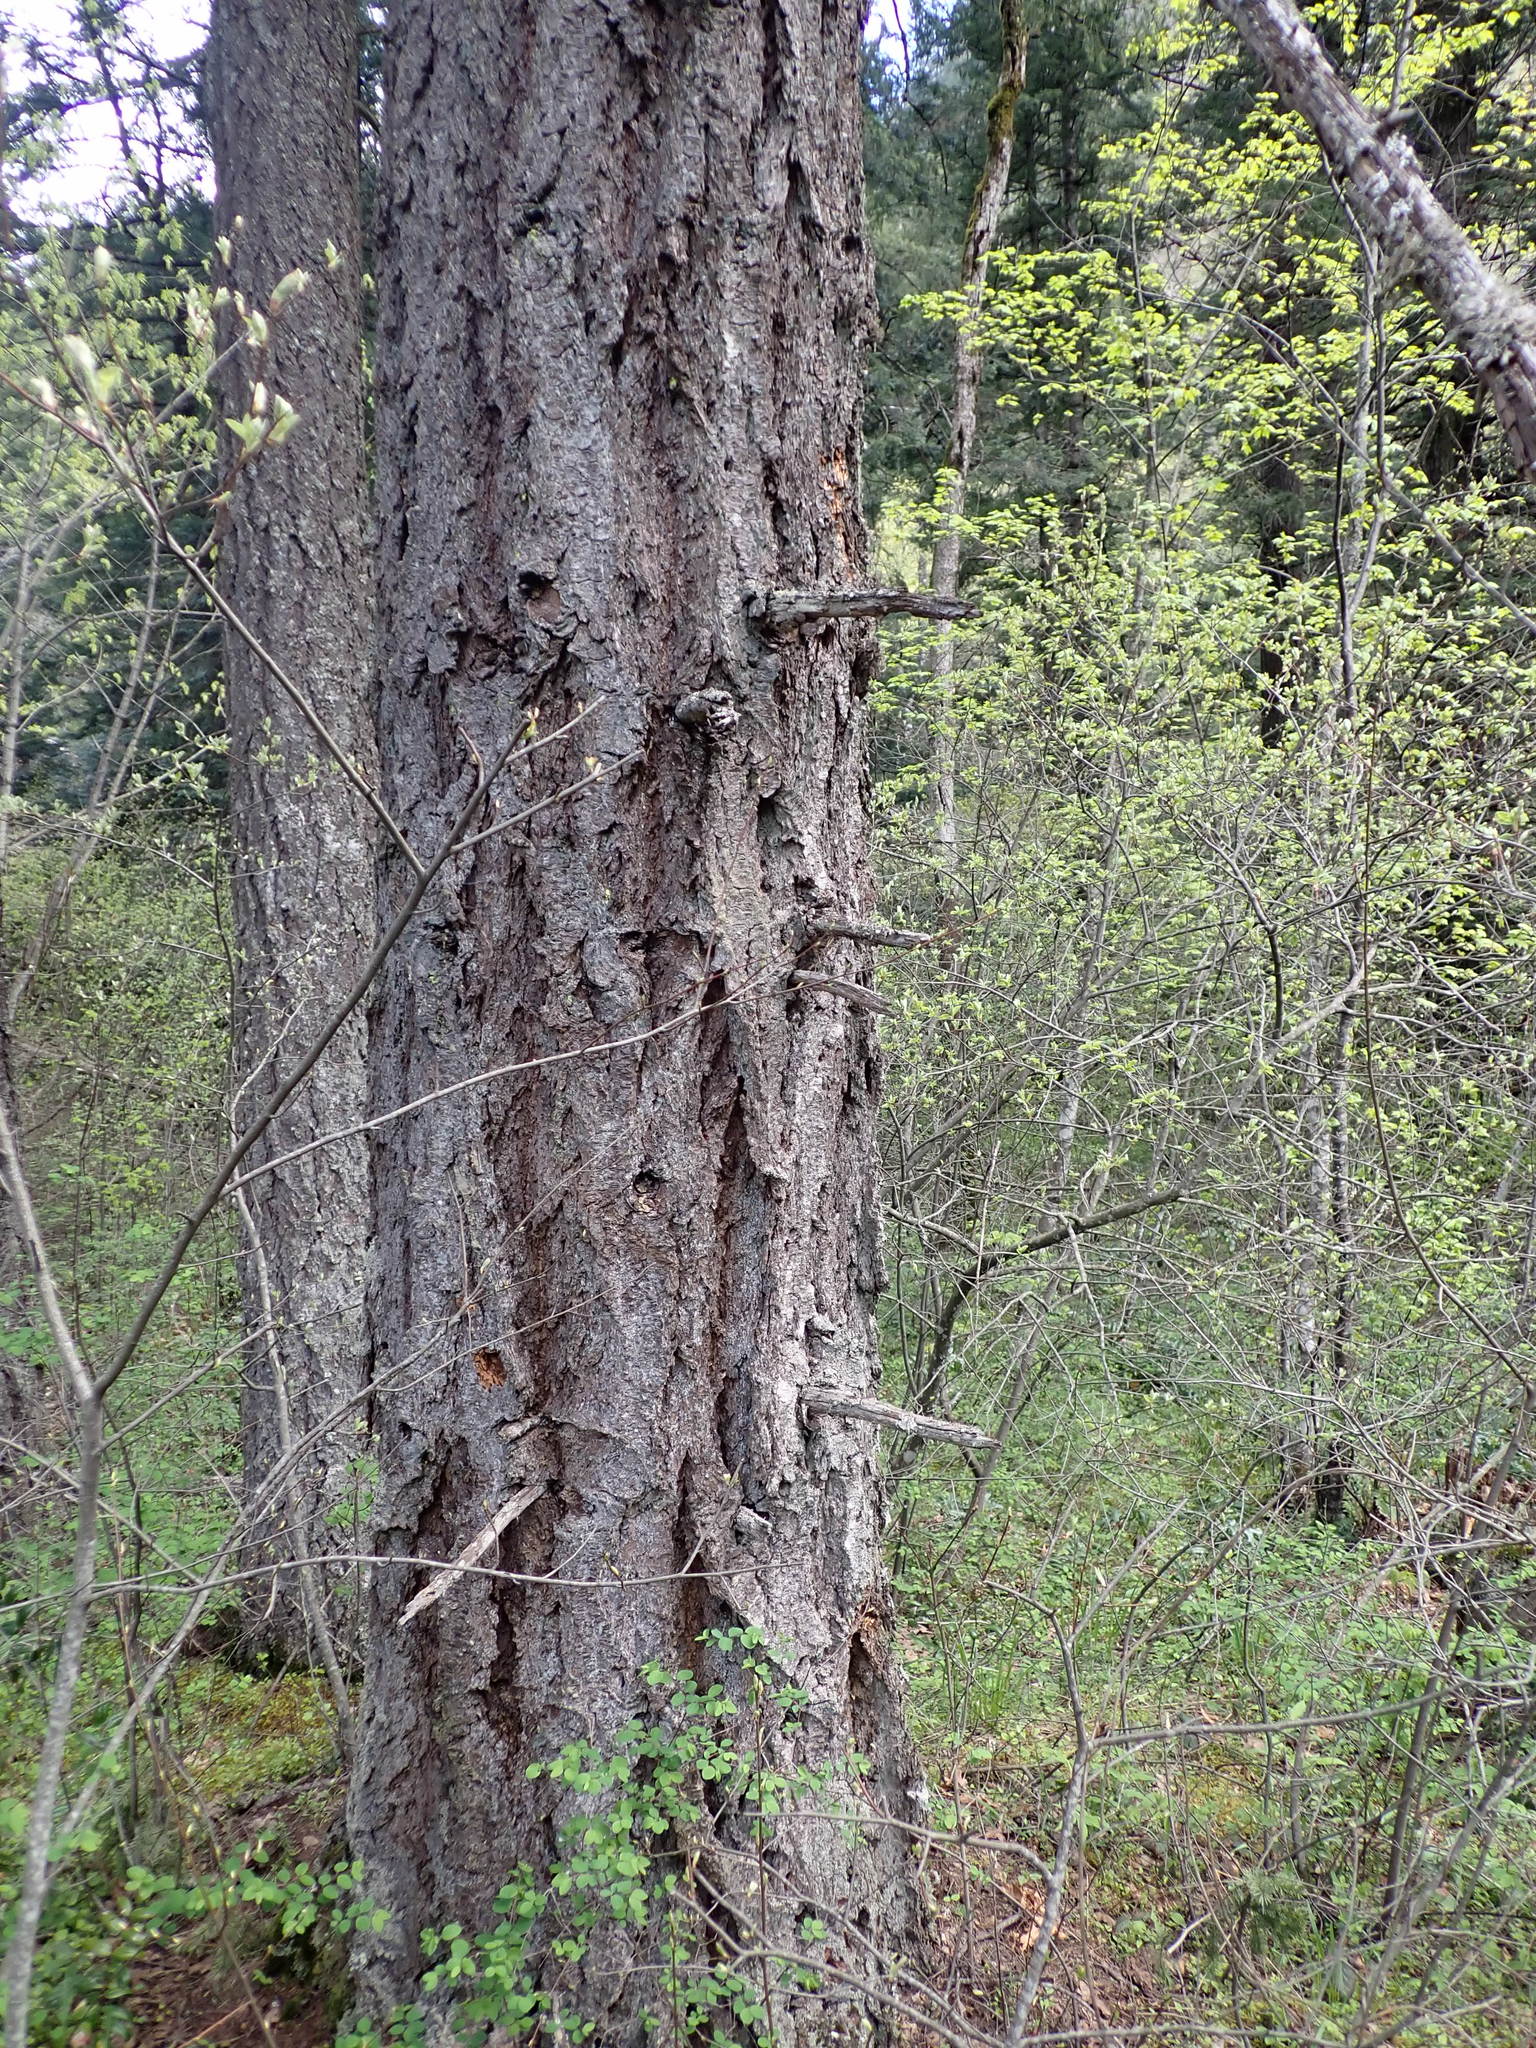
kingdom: Plantae
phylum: Tracheophyta
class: Pinopsida
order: Pinales
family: Pinaceae
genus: Pseudotsuga
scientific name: Pseudotsuga menziesii
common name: Douglas fir
